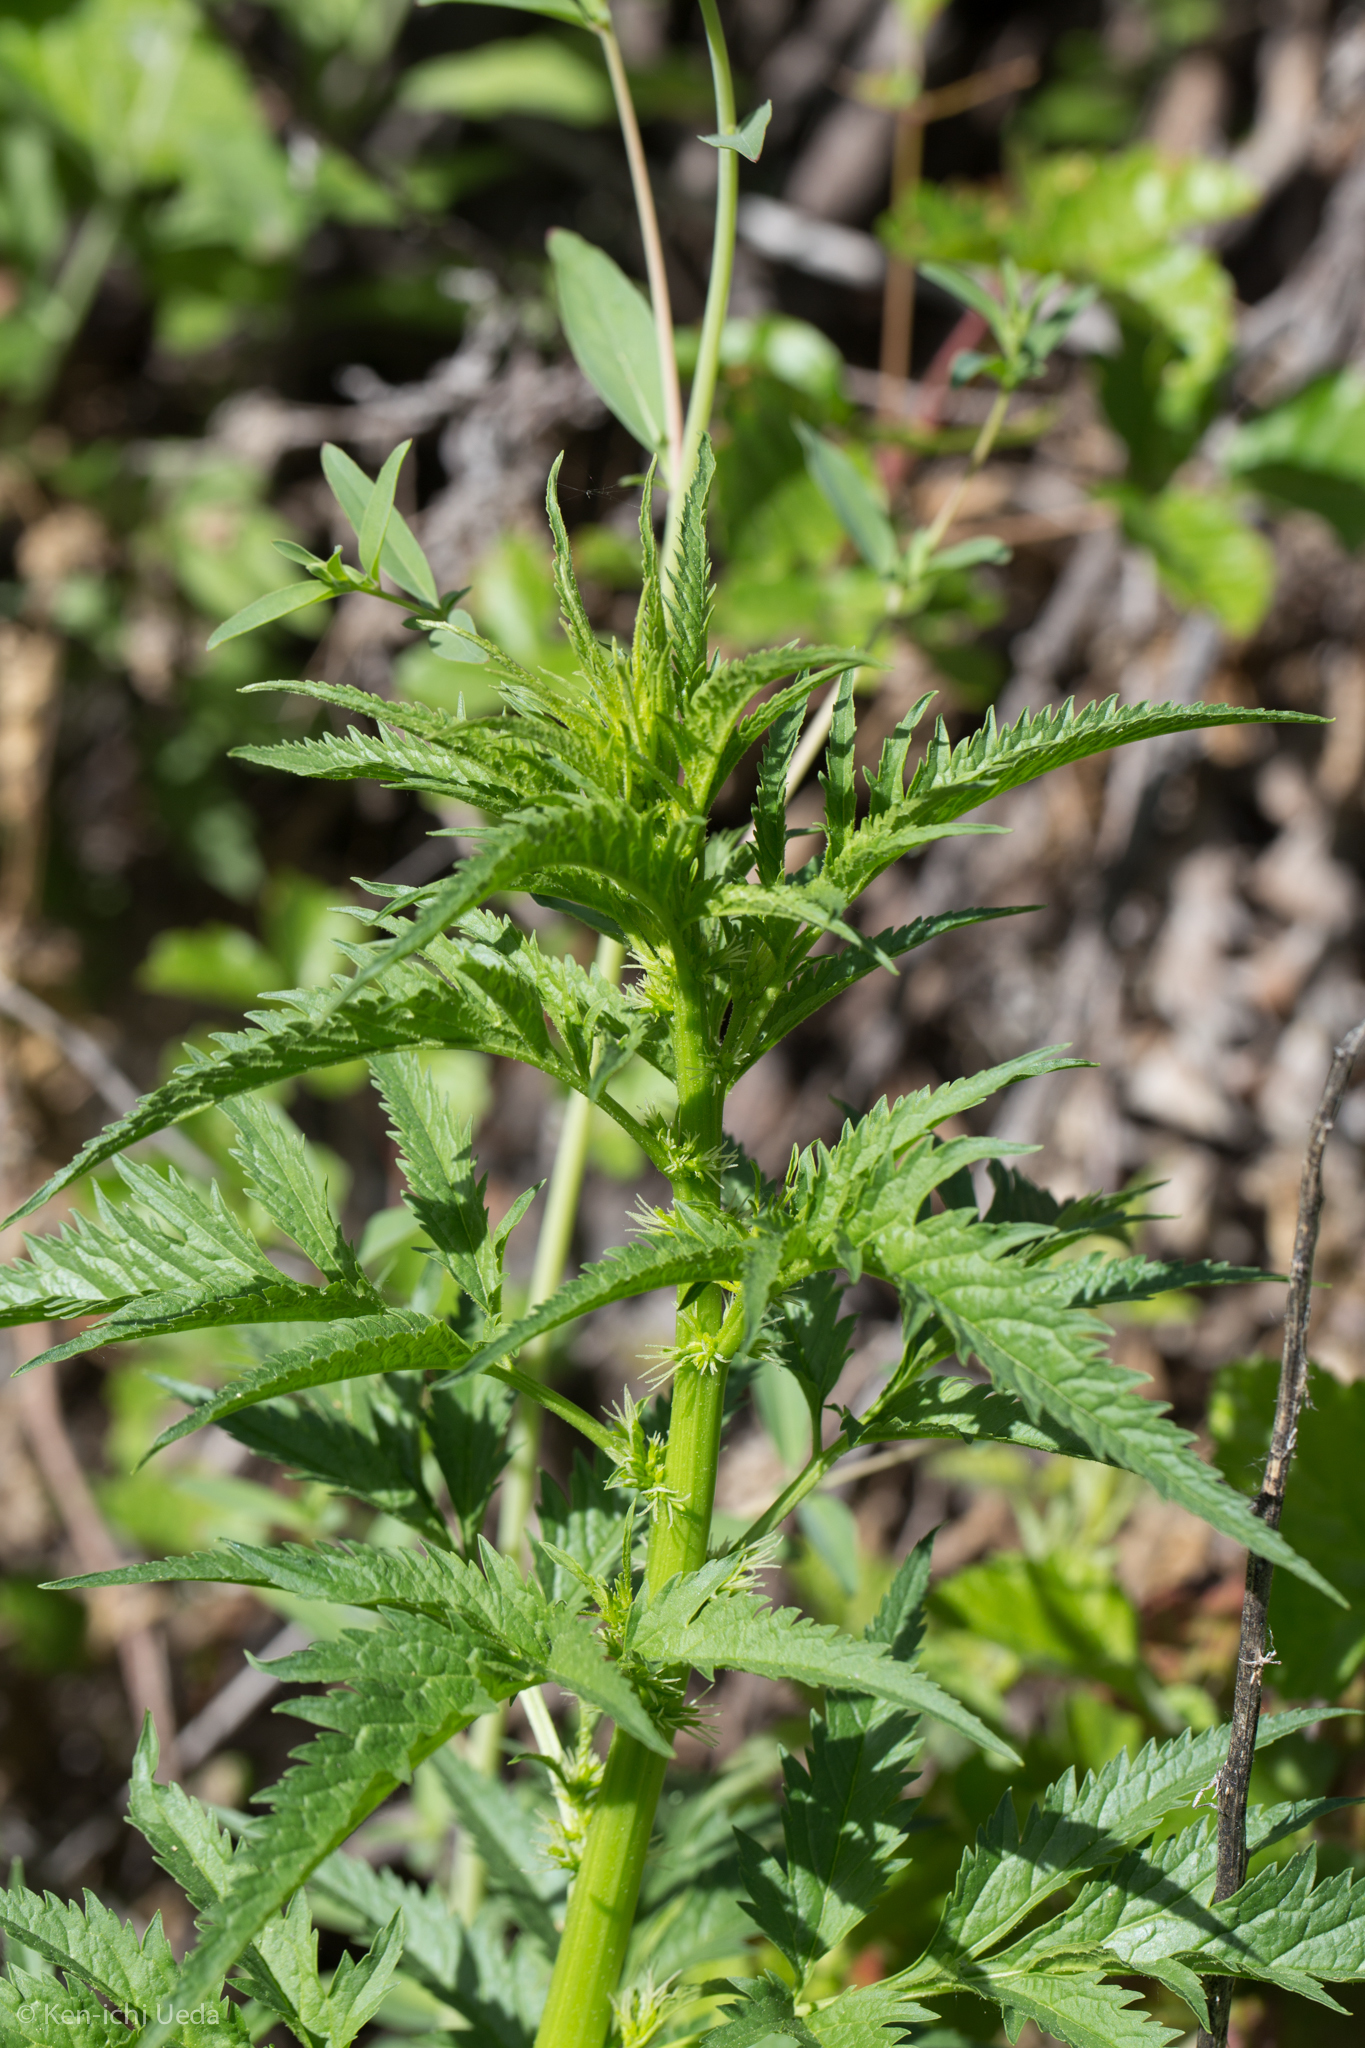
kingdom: Plantae
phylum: Tracheophyta
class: Magnoliopsida
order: Cucurbitales
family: Datiscaceae
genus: Datisca
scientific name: Datisca glomerata
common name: Durango-root
